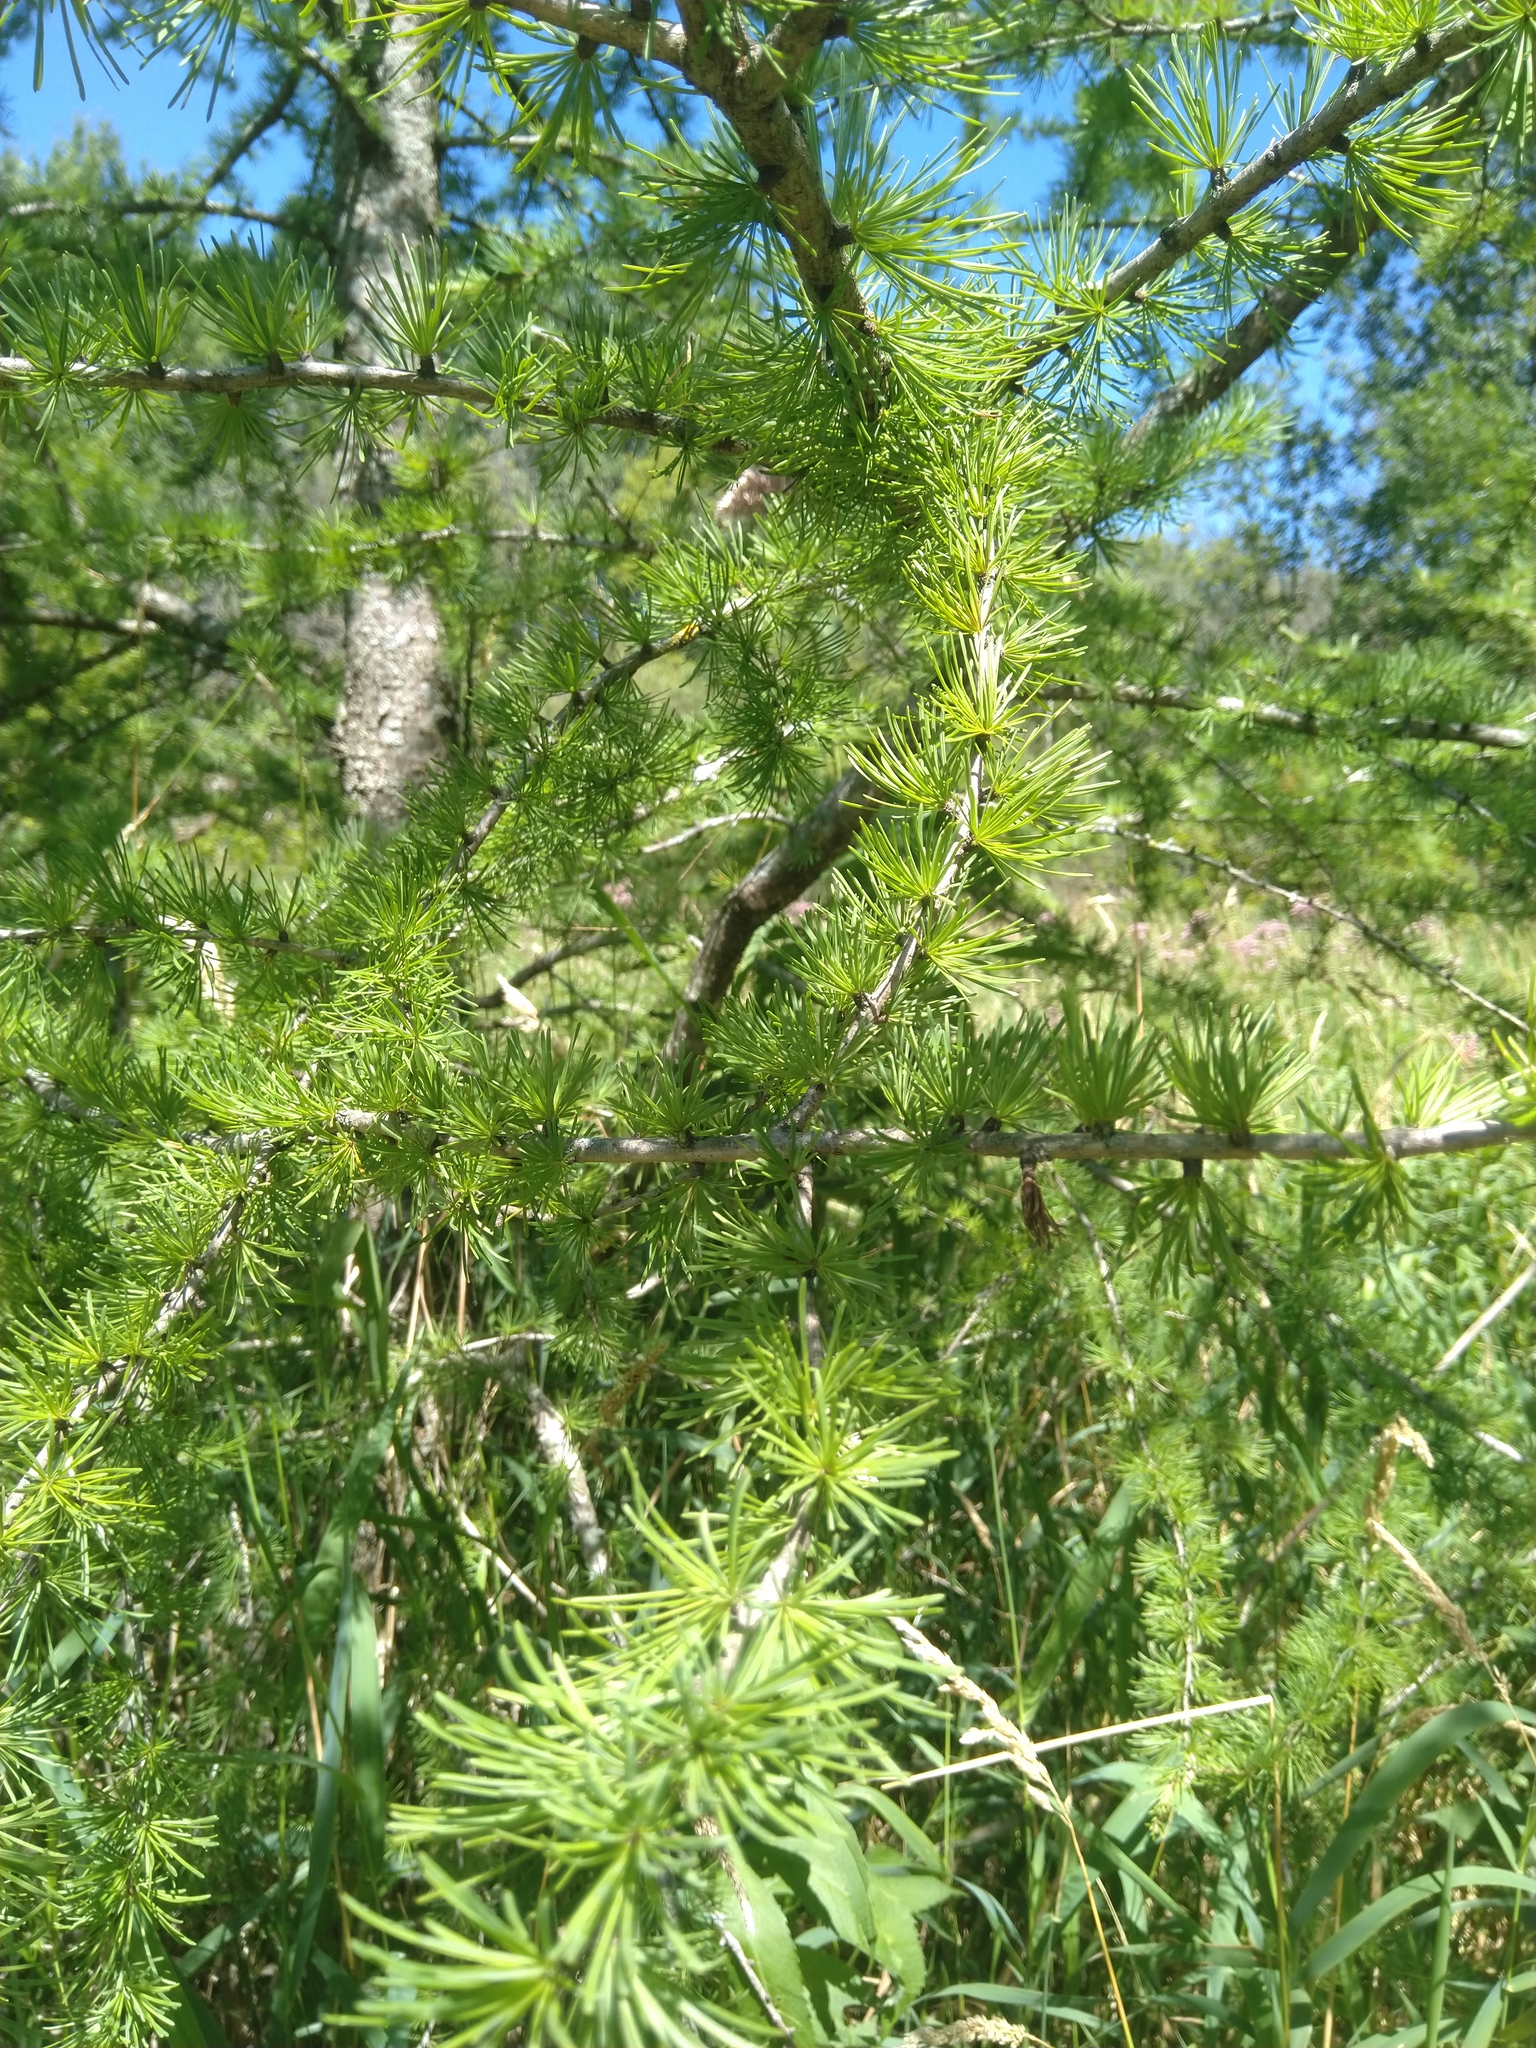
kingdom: Plantae
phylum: Tracheophyta
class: Pinopsida
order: Pinales
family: Pinaceae
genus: Larix
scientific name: Larix laricina
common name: American larch
